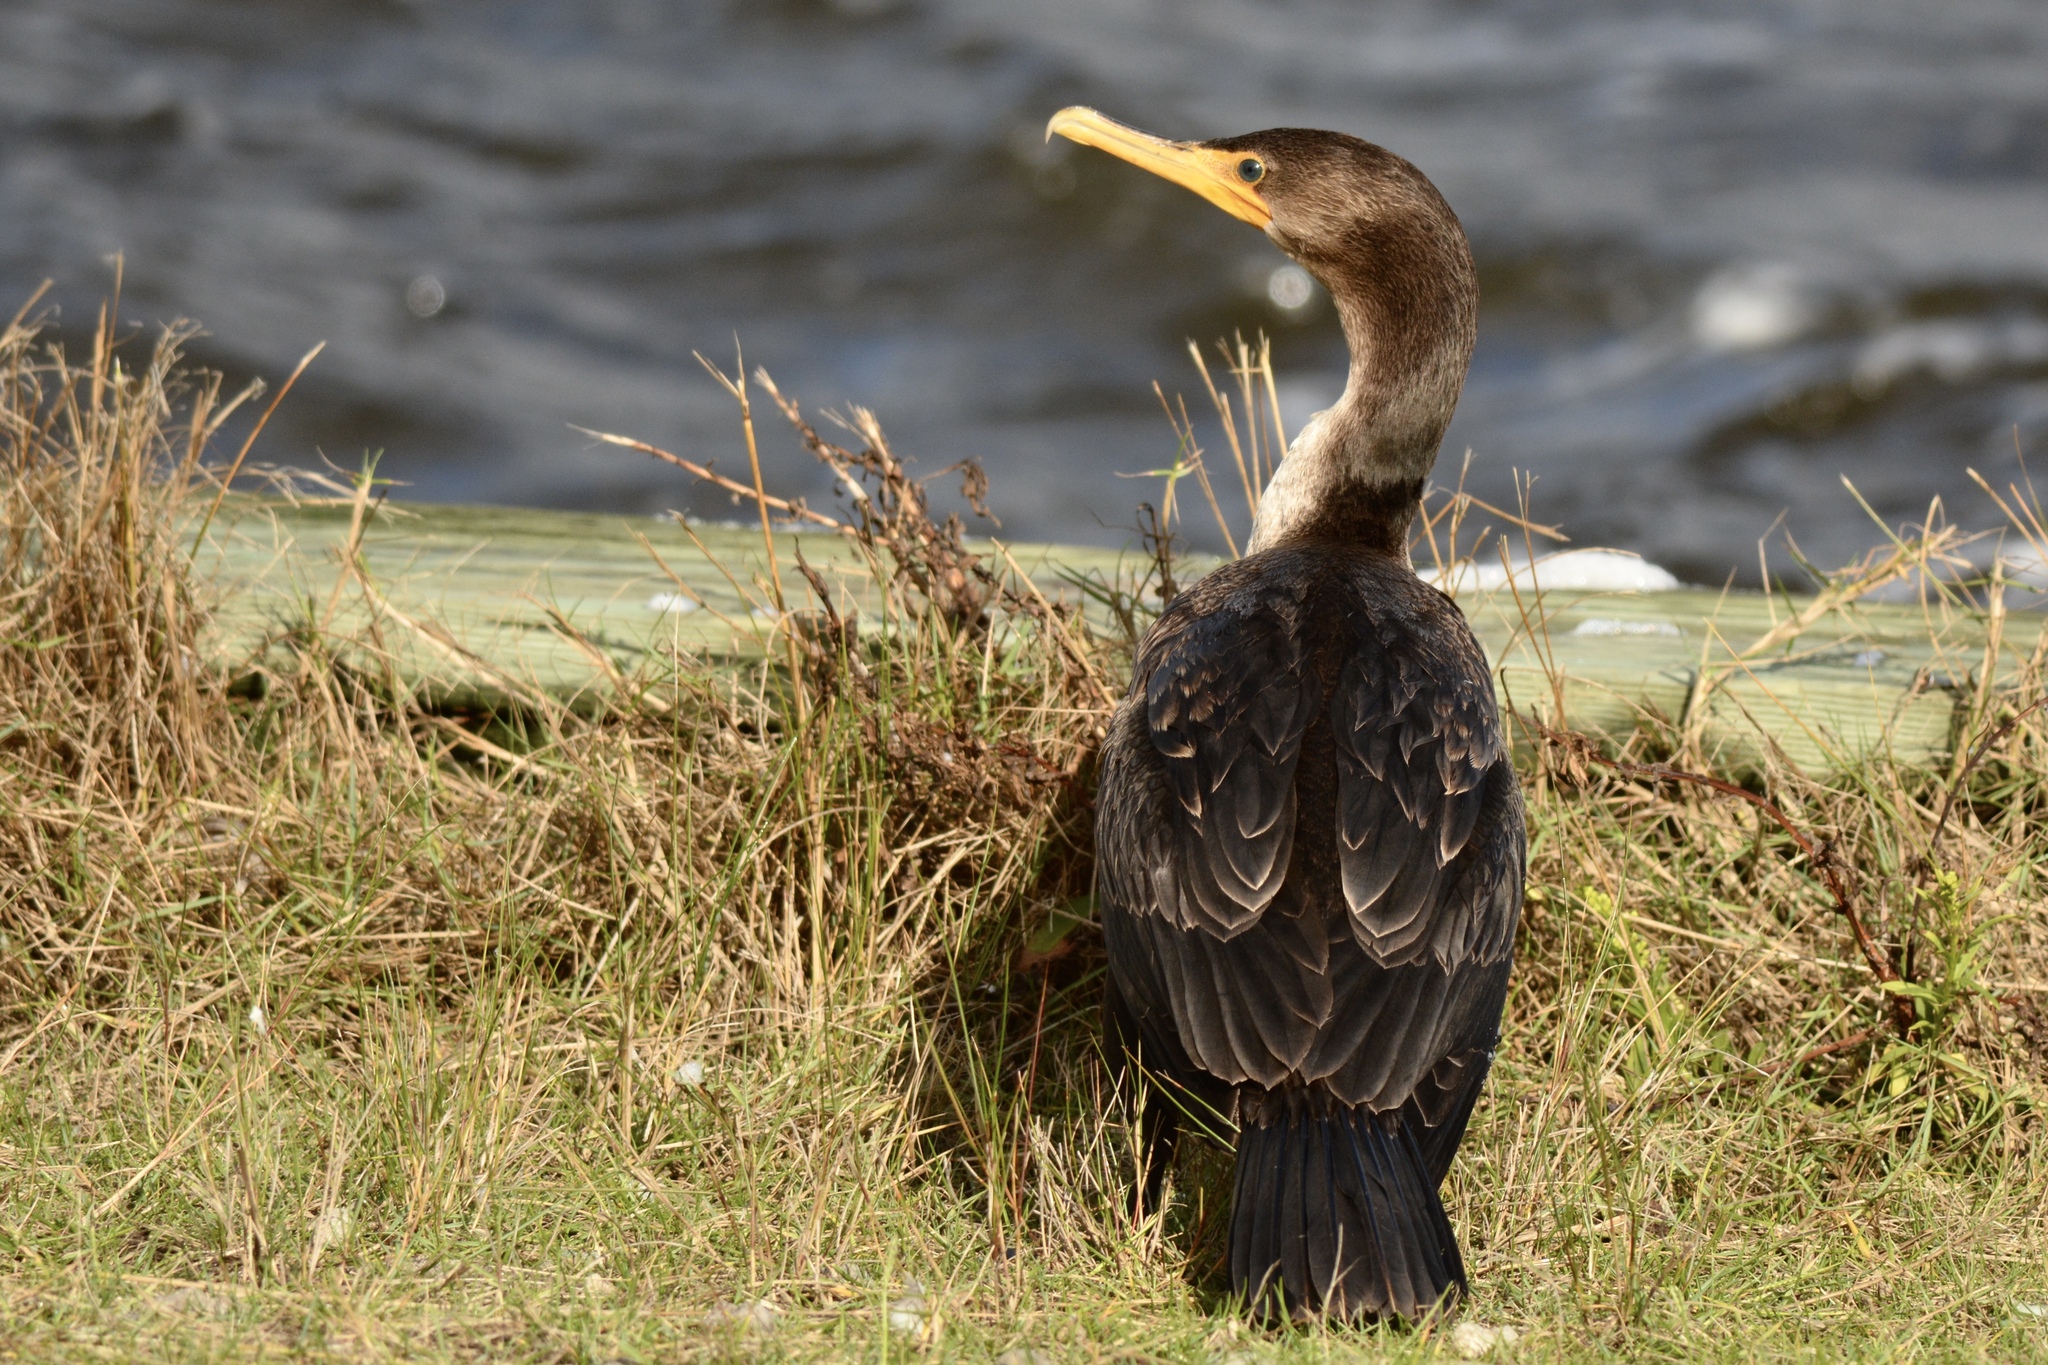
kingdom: Animalia
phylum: Chordata
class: Aves
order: Suliformes
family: Phalacrocoracidae
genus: Phalacrocorax
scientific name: Phalacrocorax auritus
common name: Double-crested cormorant
